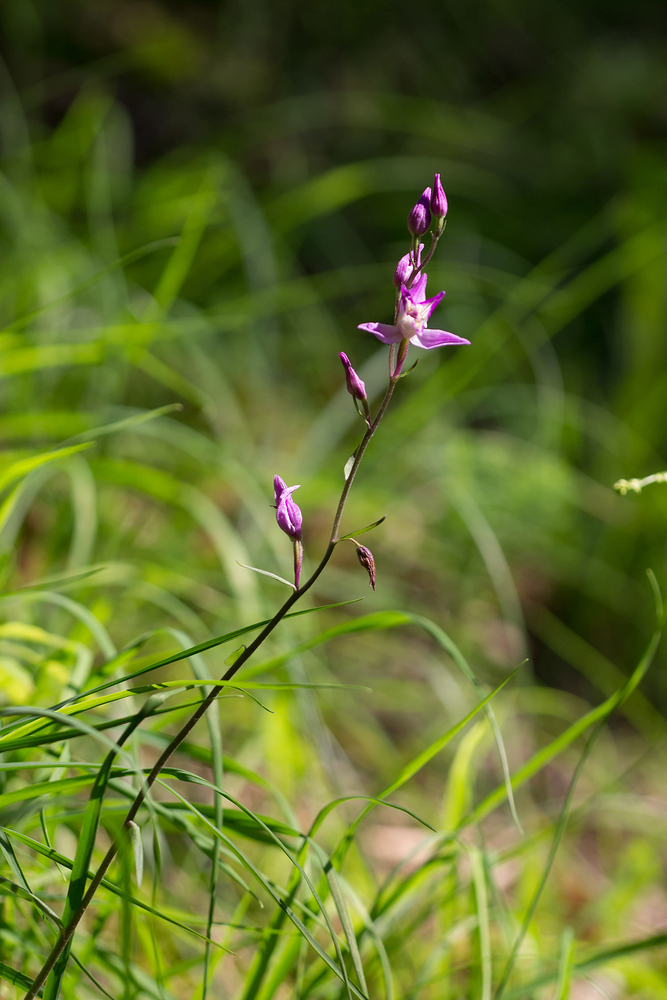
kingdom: Plantae
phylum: Tracheophyta
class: Liliopsida
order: Asparagales
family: Orchidaceae
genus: Cephalanthera
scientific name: Cephalanthera rubra
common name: Red helleborine
